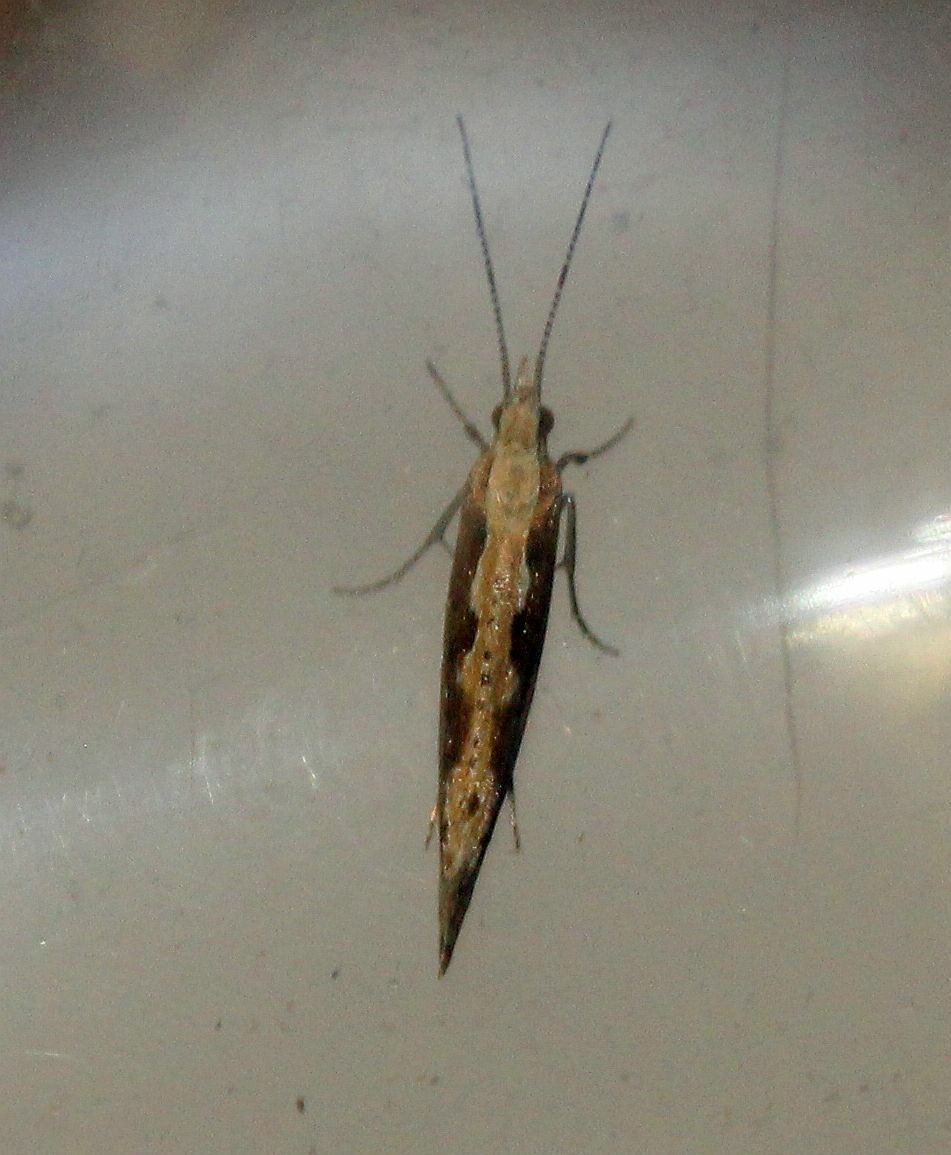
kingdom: Animalia
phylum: Arthropoda
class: Insecta
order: Lepidoptera
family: Plutellidae
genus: Plutella
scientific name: Plutella xylostella
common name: Diamond-back moth
